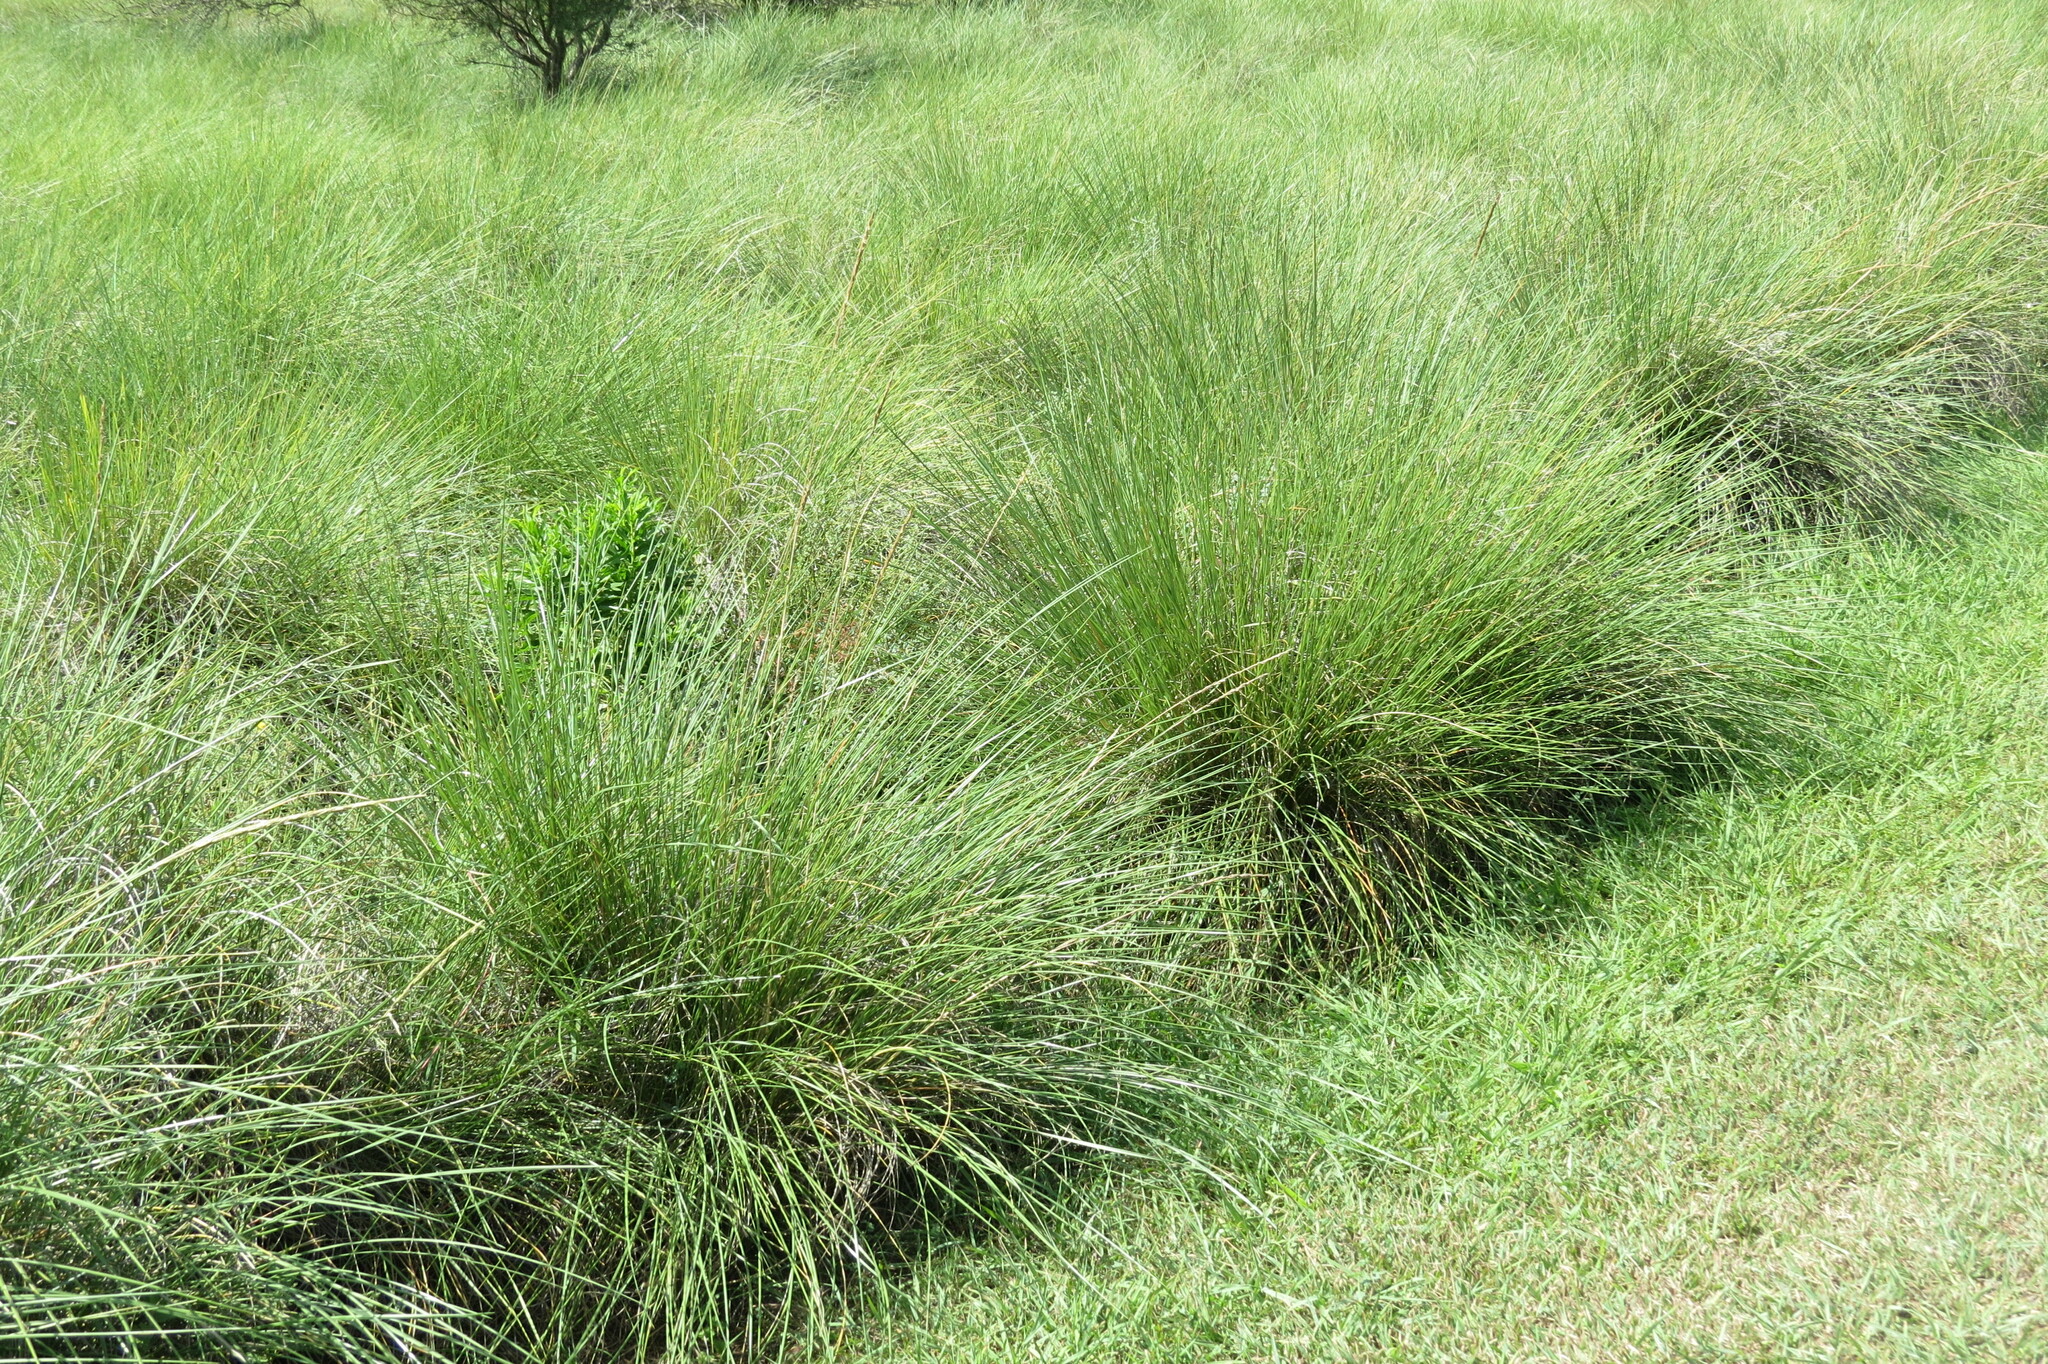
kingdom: Plantae
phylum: Tracheophyta
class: Liliopsida
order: Poales
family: Poaceae
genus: Sporobolus
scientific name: Sporobolus spartinae
